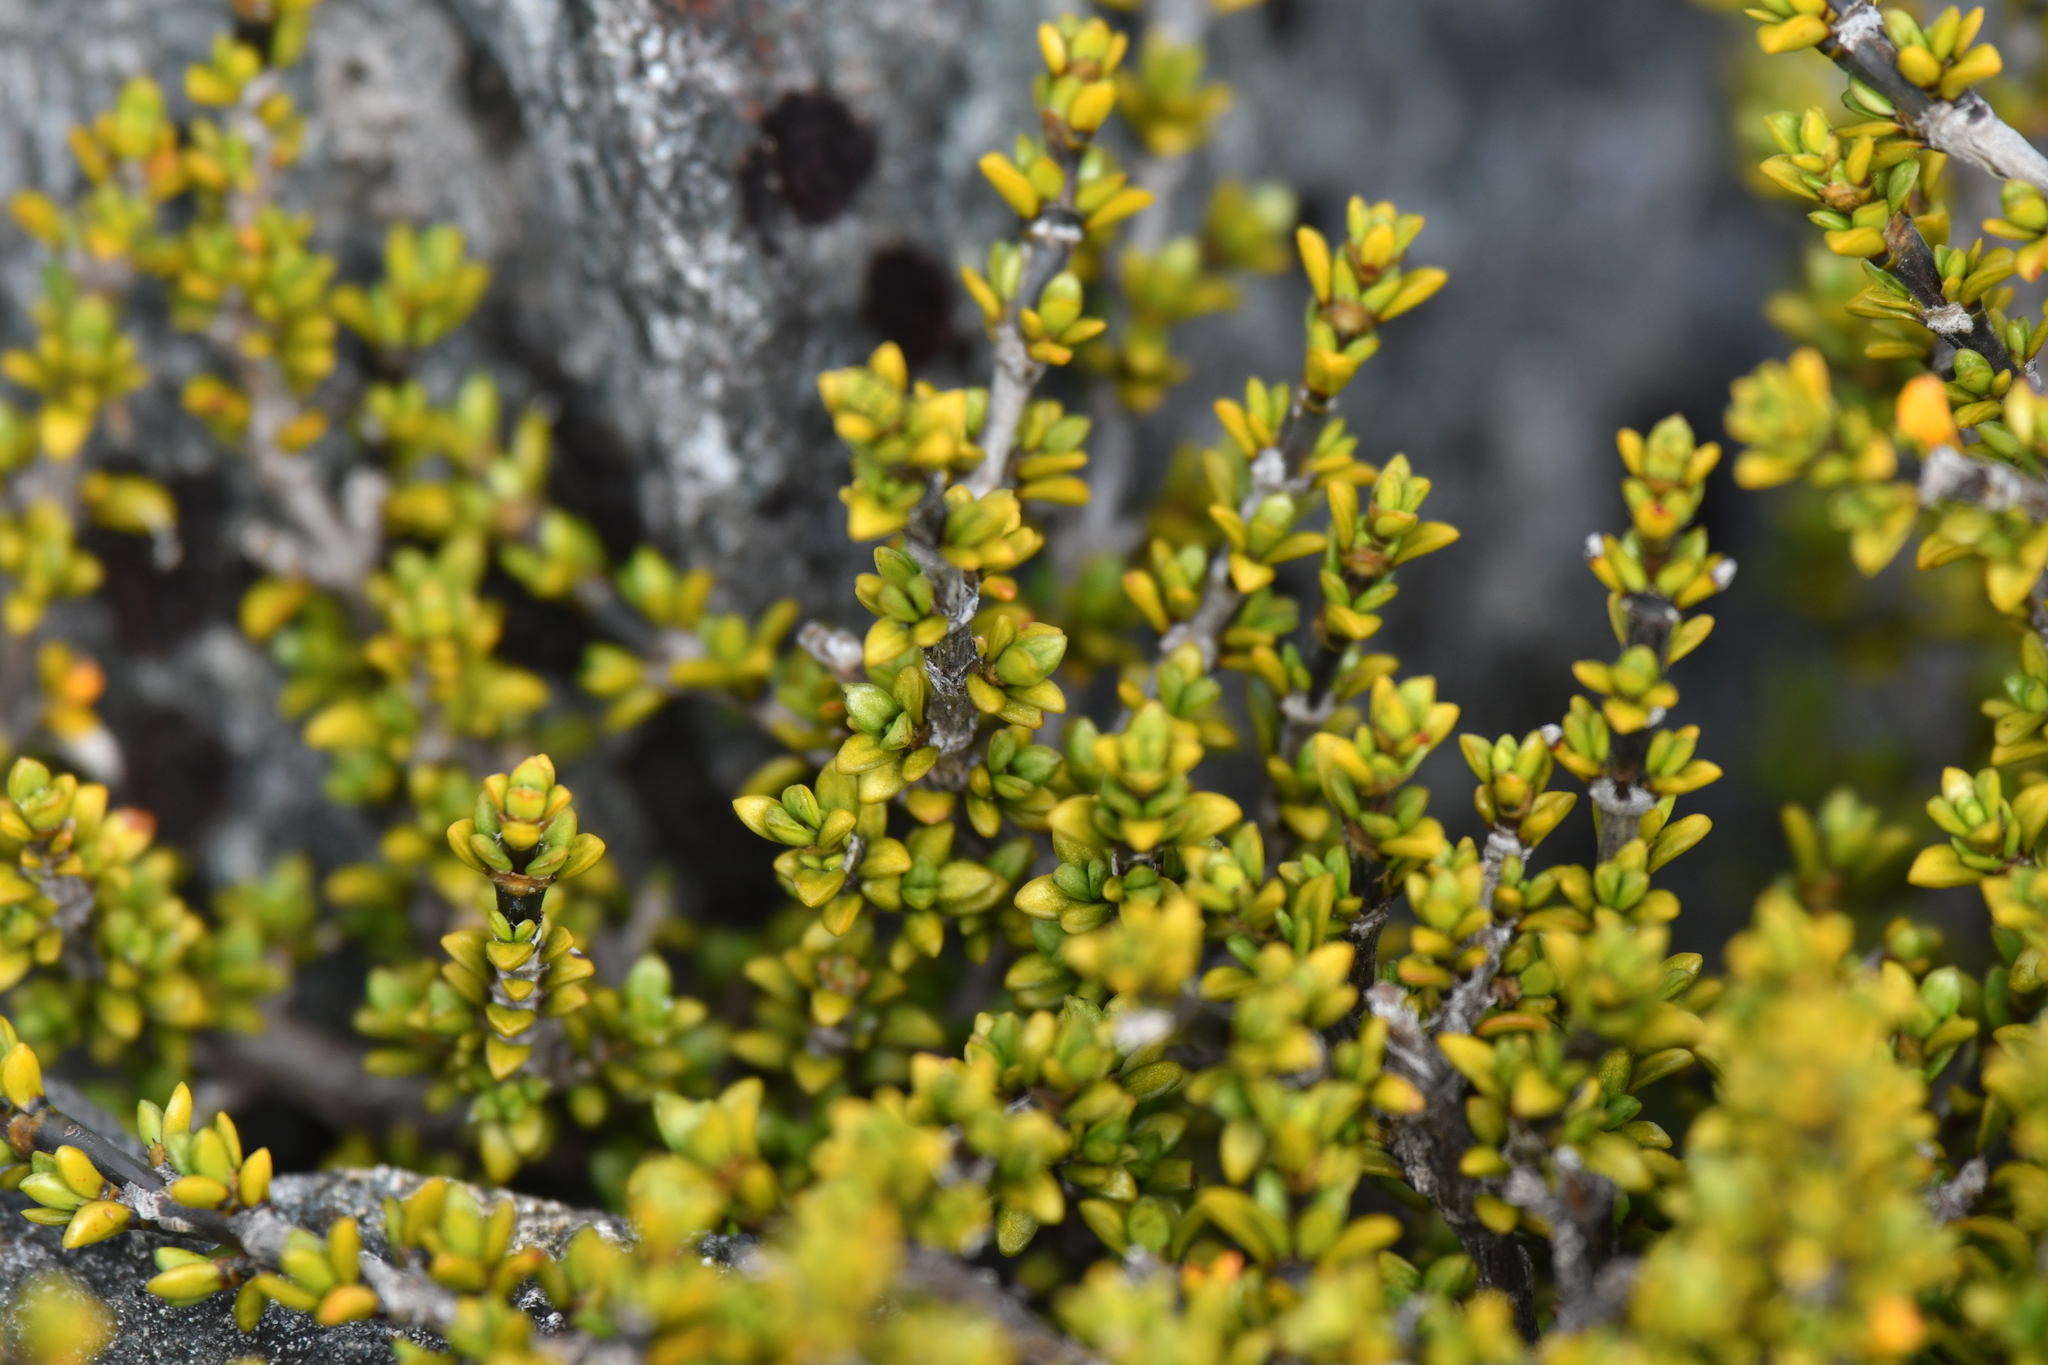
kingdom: Plantae
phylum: Tracheophyta
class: Magnoliopsida
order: Gentianales
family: Rubiaceae
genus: Coprosma
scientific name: Coprosma fowerakeri
